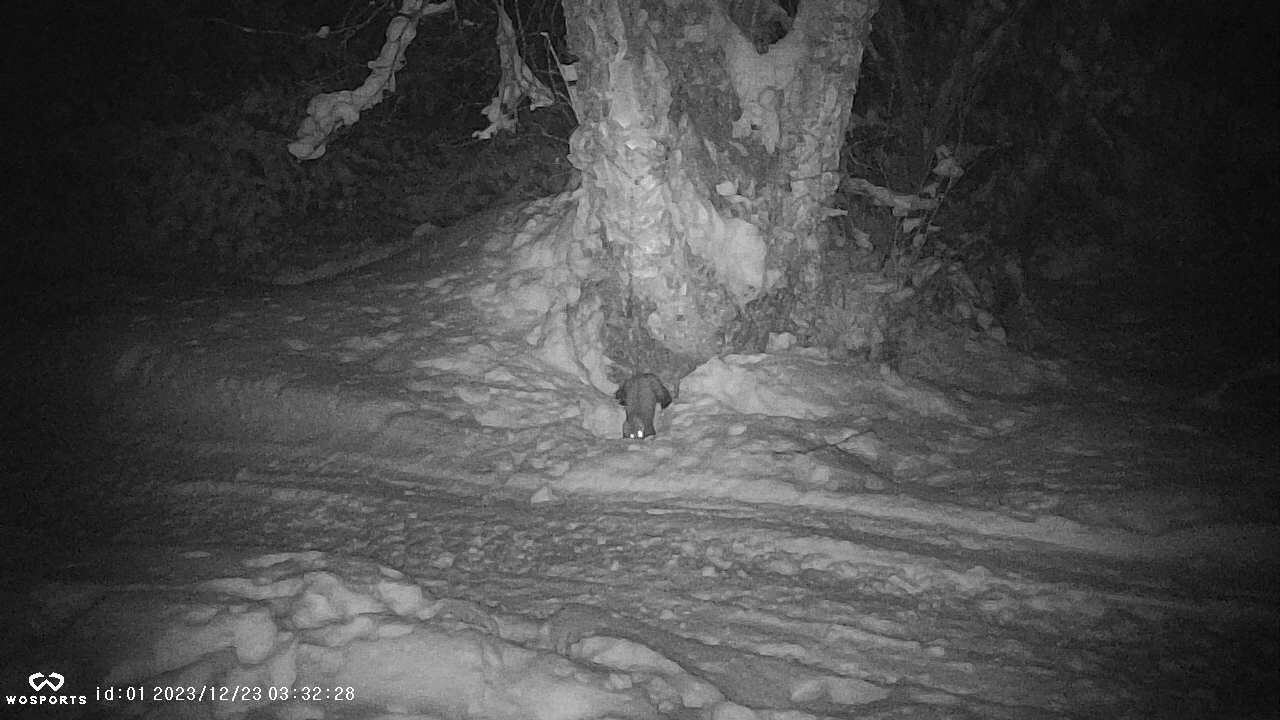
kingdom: Animalia
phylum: Chordata
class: Mammalia
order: Carnivora
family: Mustelidae
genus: Martes
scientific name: Martes americana
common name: American marten
